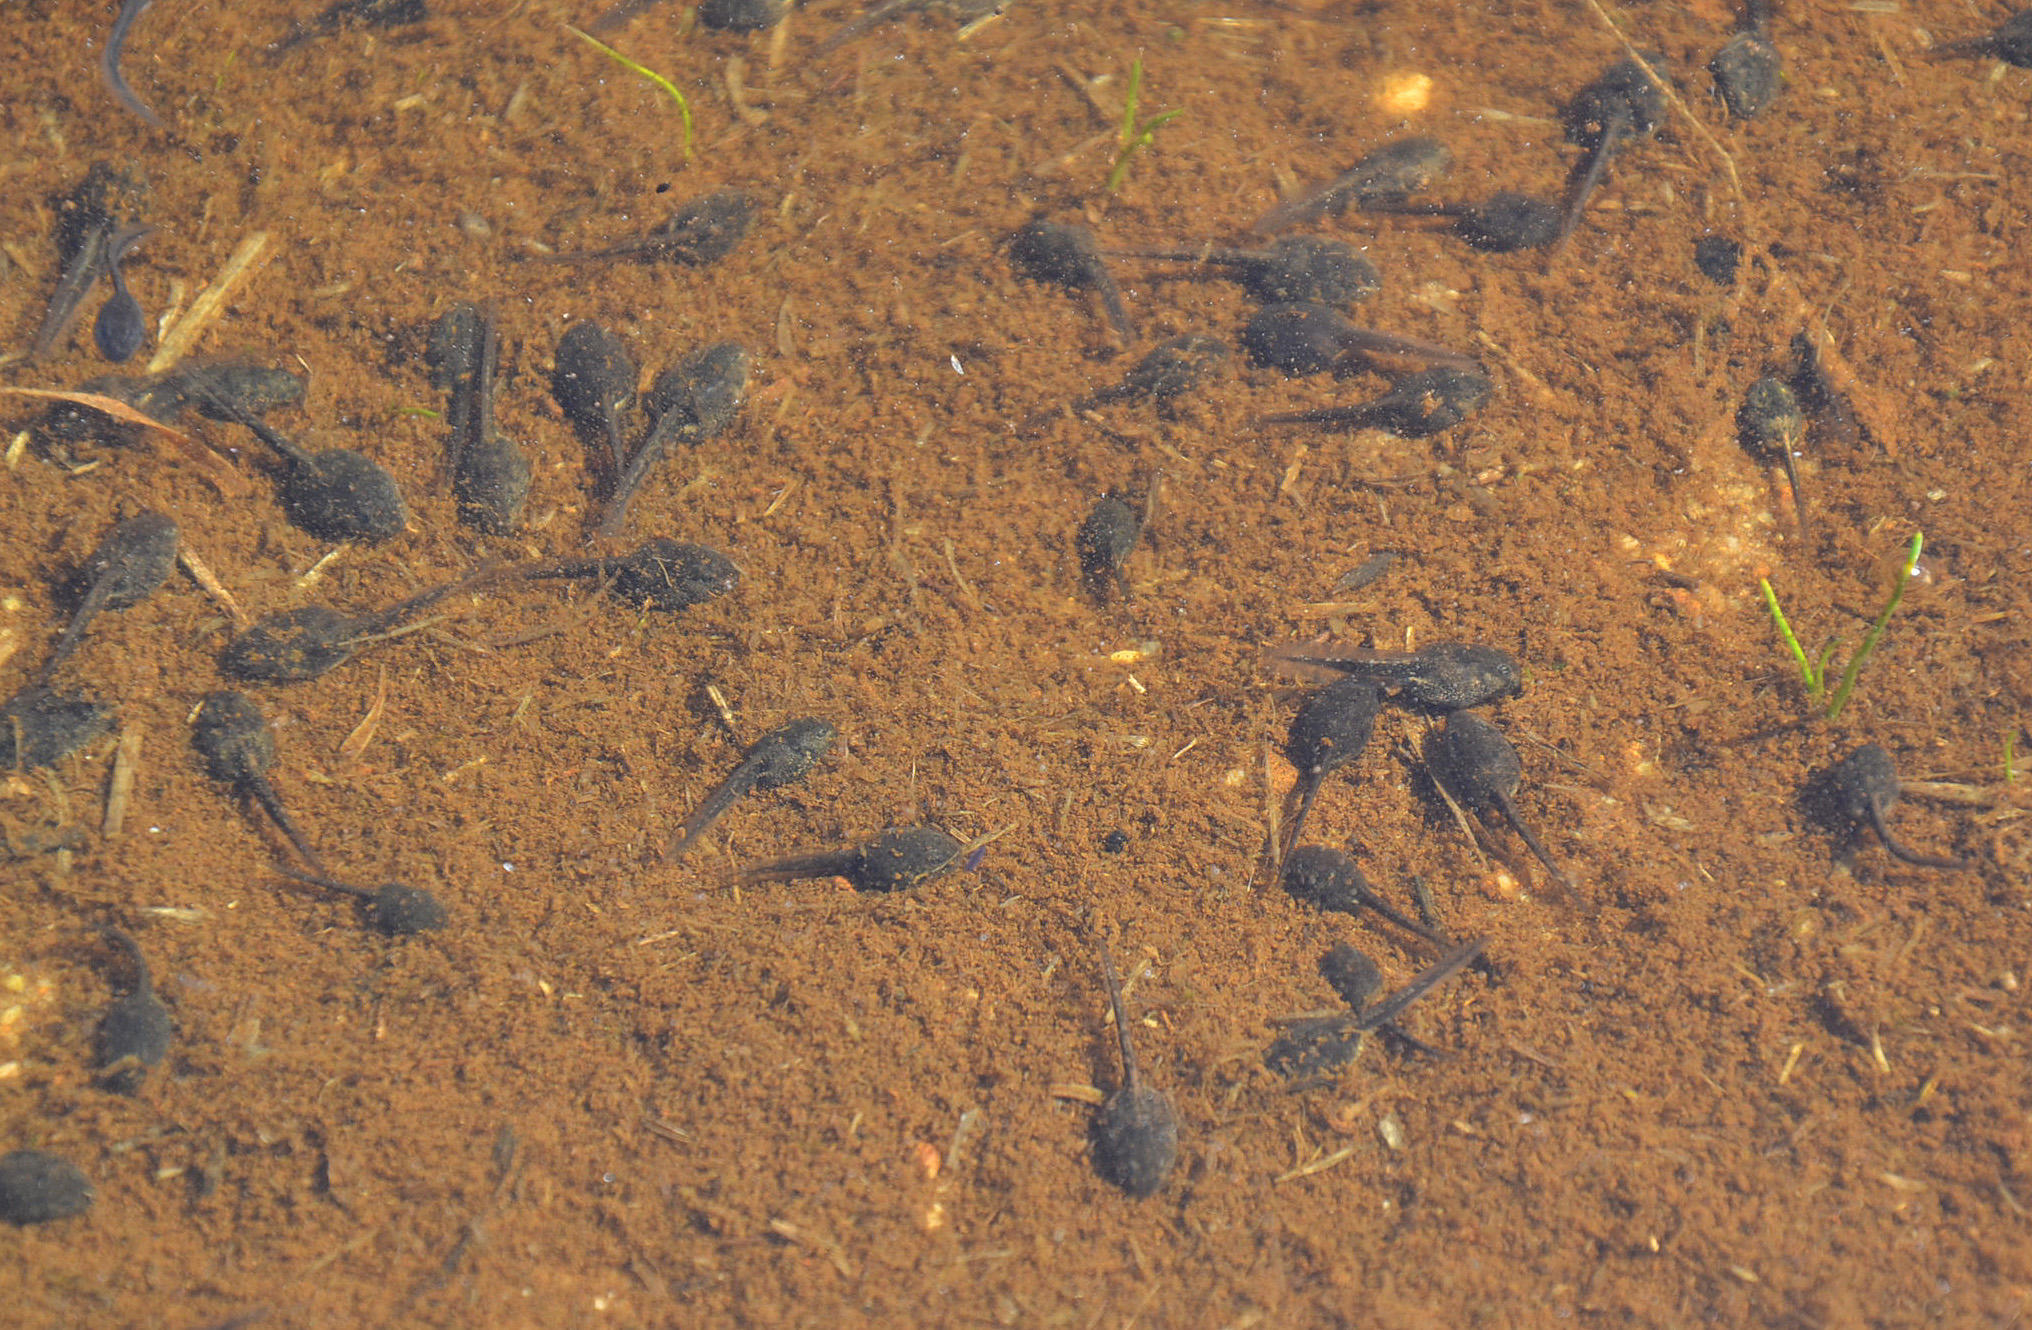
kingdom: Animalia
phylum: Chordata
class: Amphibia
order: Anura
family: Bufonidae
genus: Vandijkophrynus
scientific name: Vandijkophrynus angusticeps
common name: Sand toad
